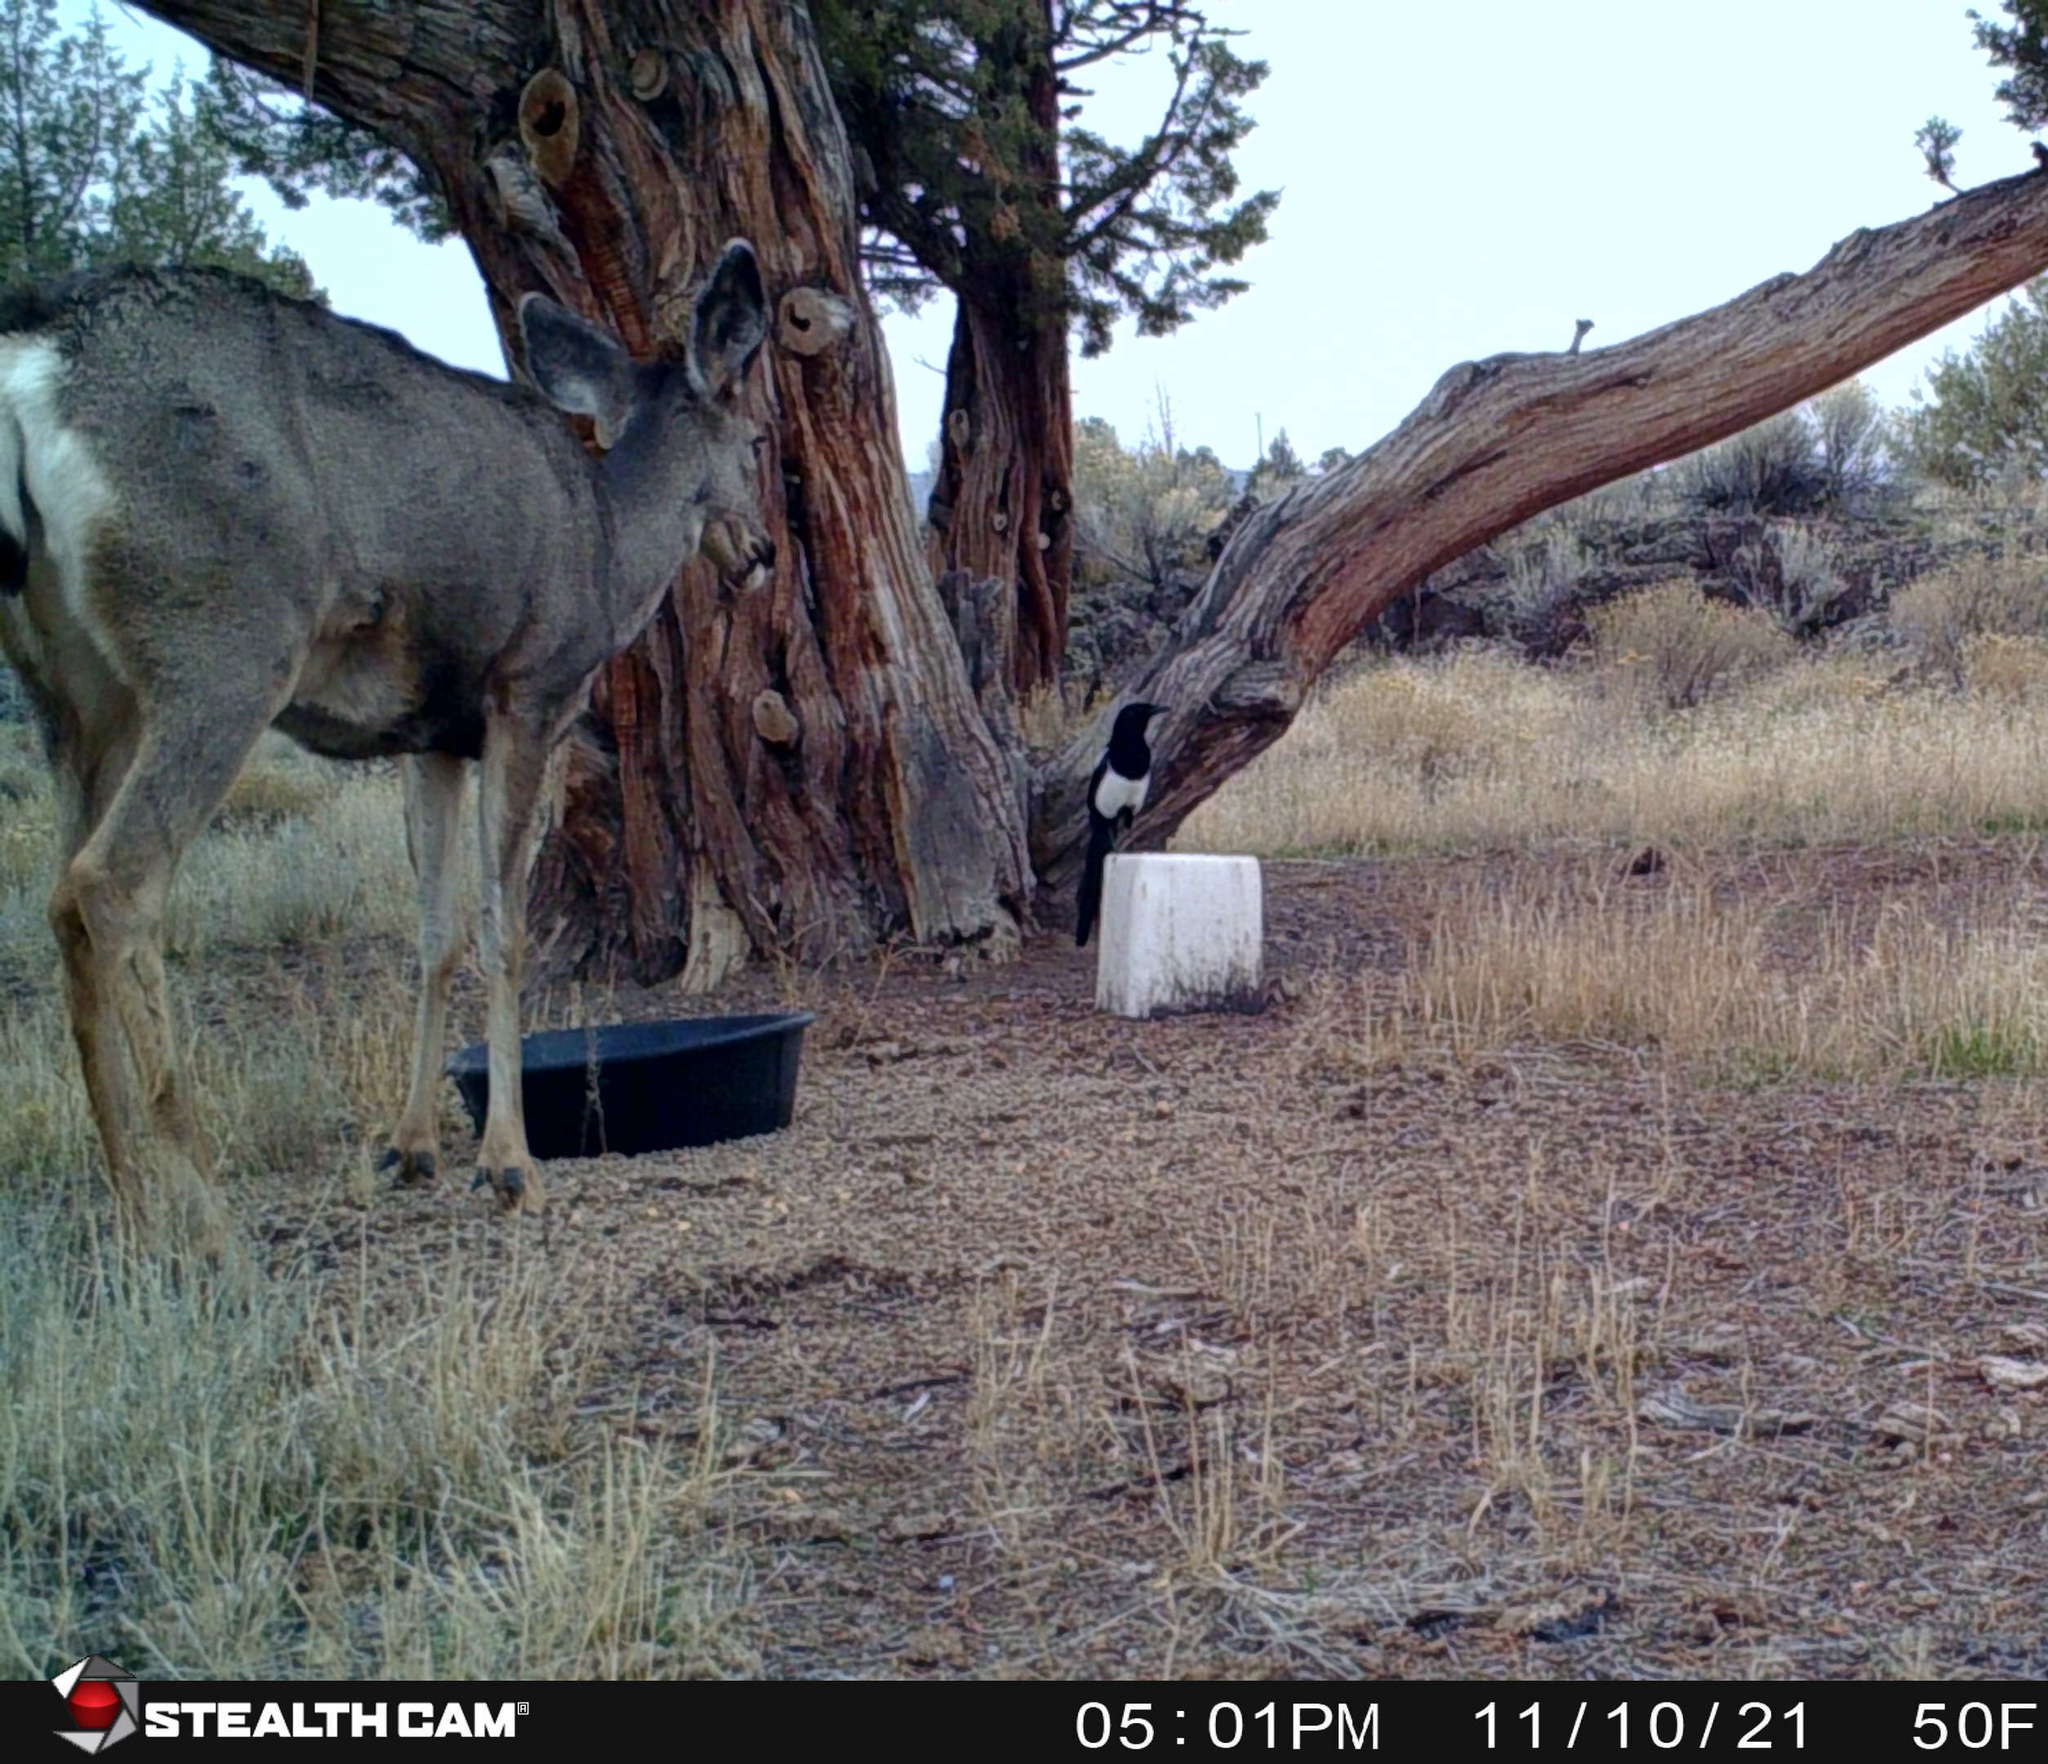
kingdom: Animalia
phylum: Chordata
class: Aves
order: Passeriformes
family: Corvidae
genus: Pica
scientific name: Pica hudsonia
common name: Black-billed magpie
